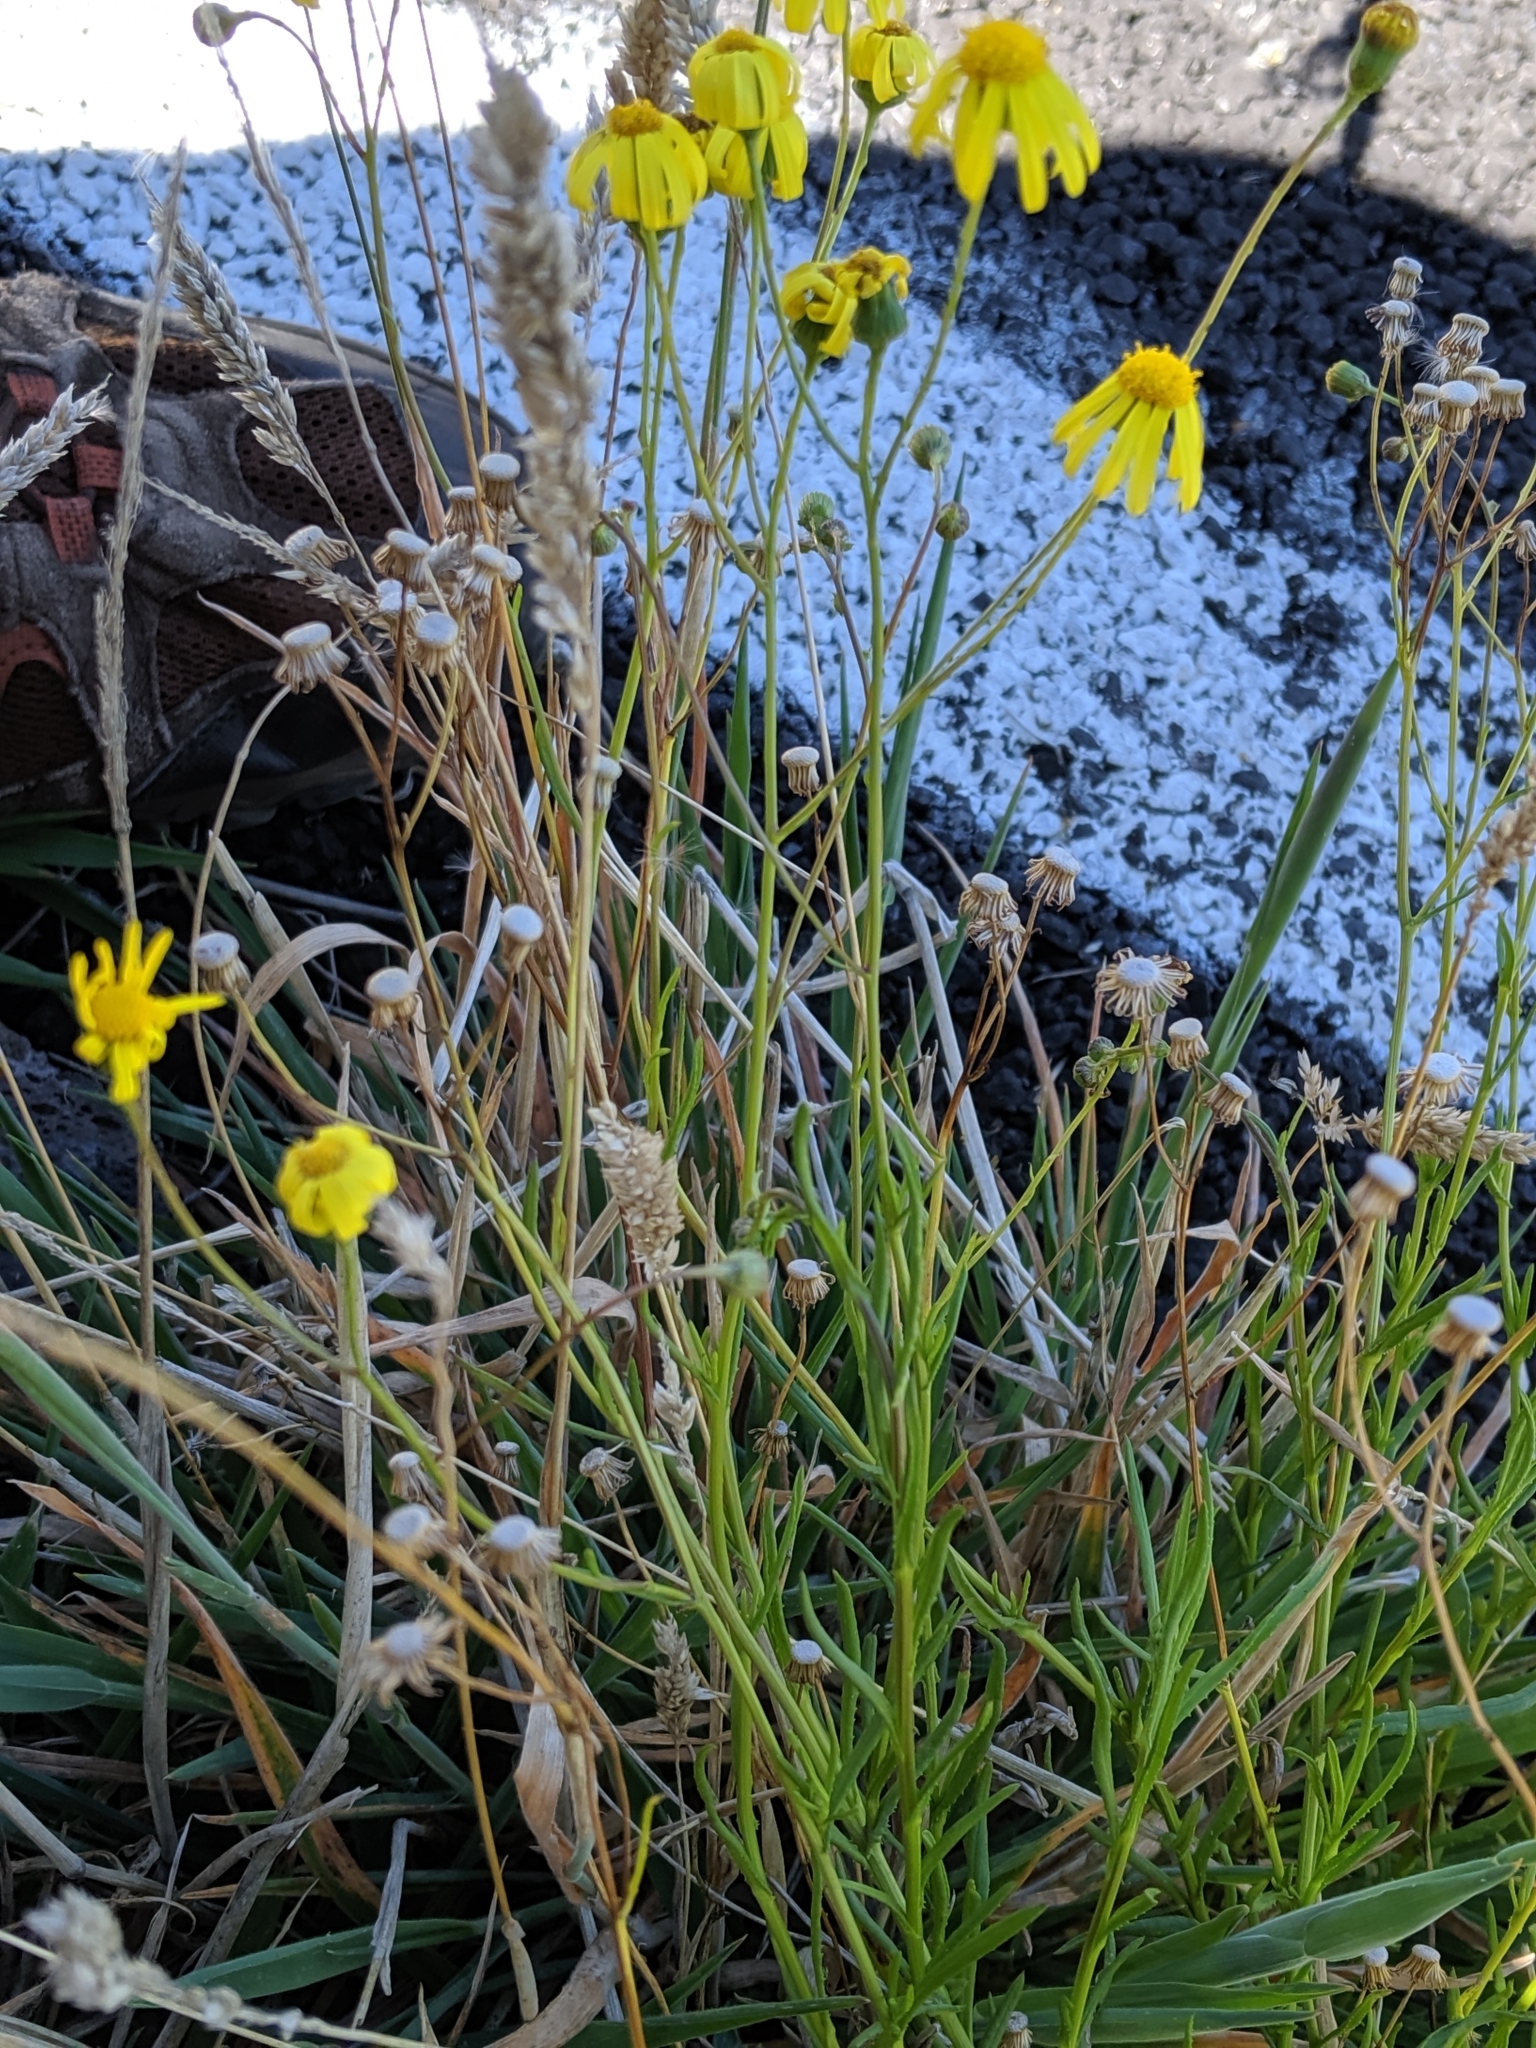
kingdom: Plantae
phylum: Tracheophyta
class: Magnoliopsida
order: Asterales
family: Asteraceae
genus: Senecio
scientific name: Senecio madagascariensis
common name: Madagascar ragwort
